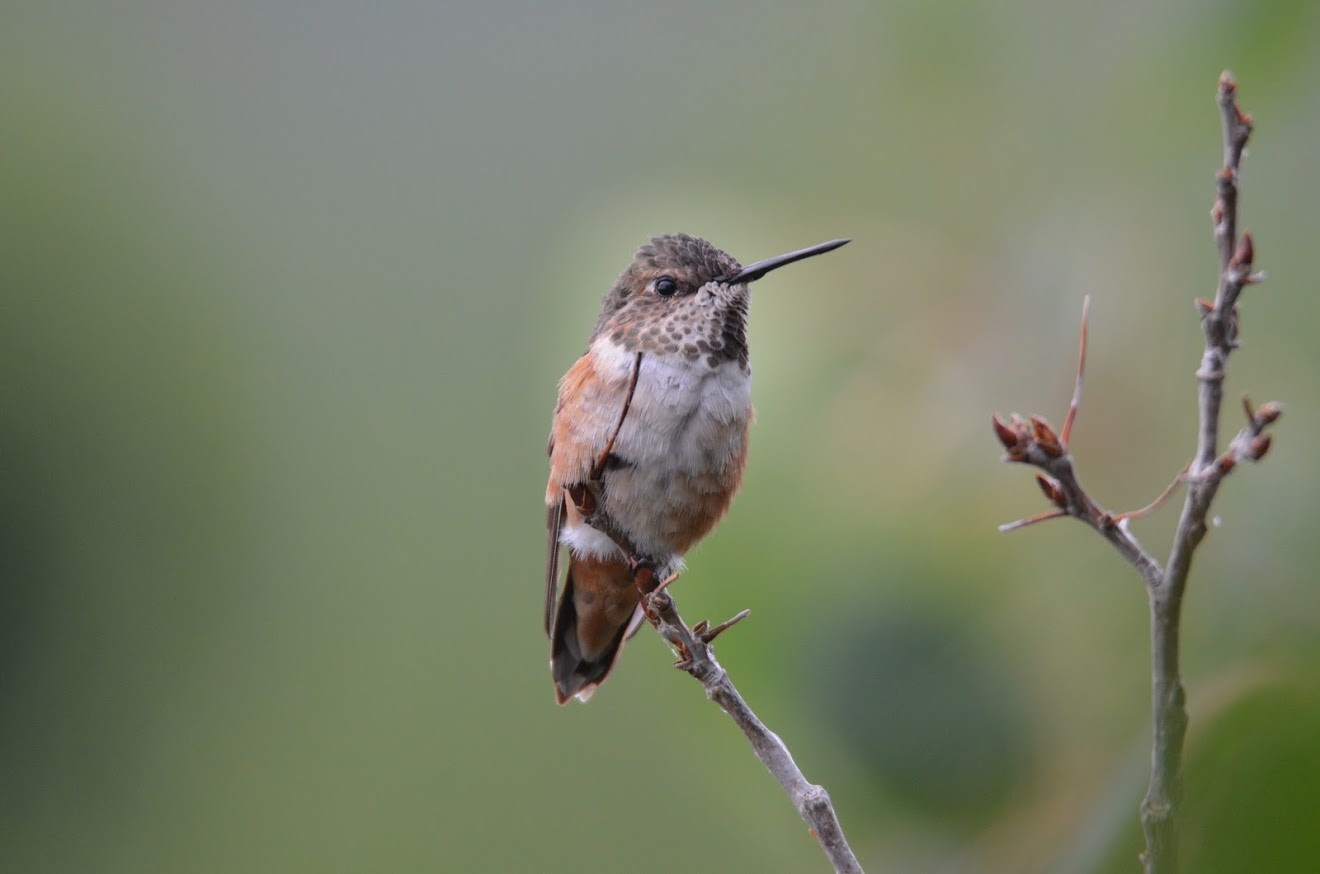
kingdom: Animalia
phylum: Chordata
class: Aves
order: Apodiformes
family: Trochilidae
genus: Selasphorus
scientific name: Selasphorus rufus
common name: Rufous hummingbird
